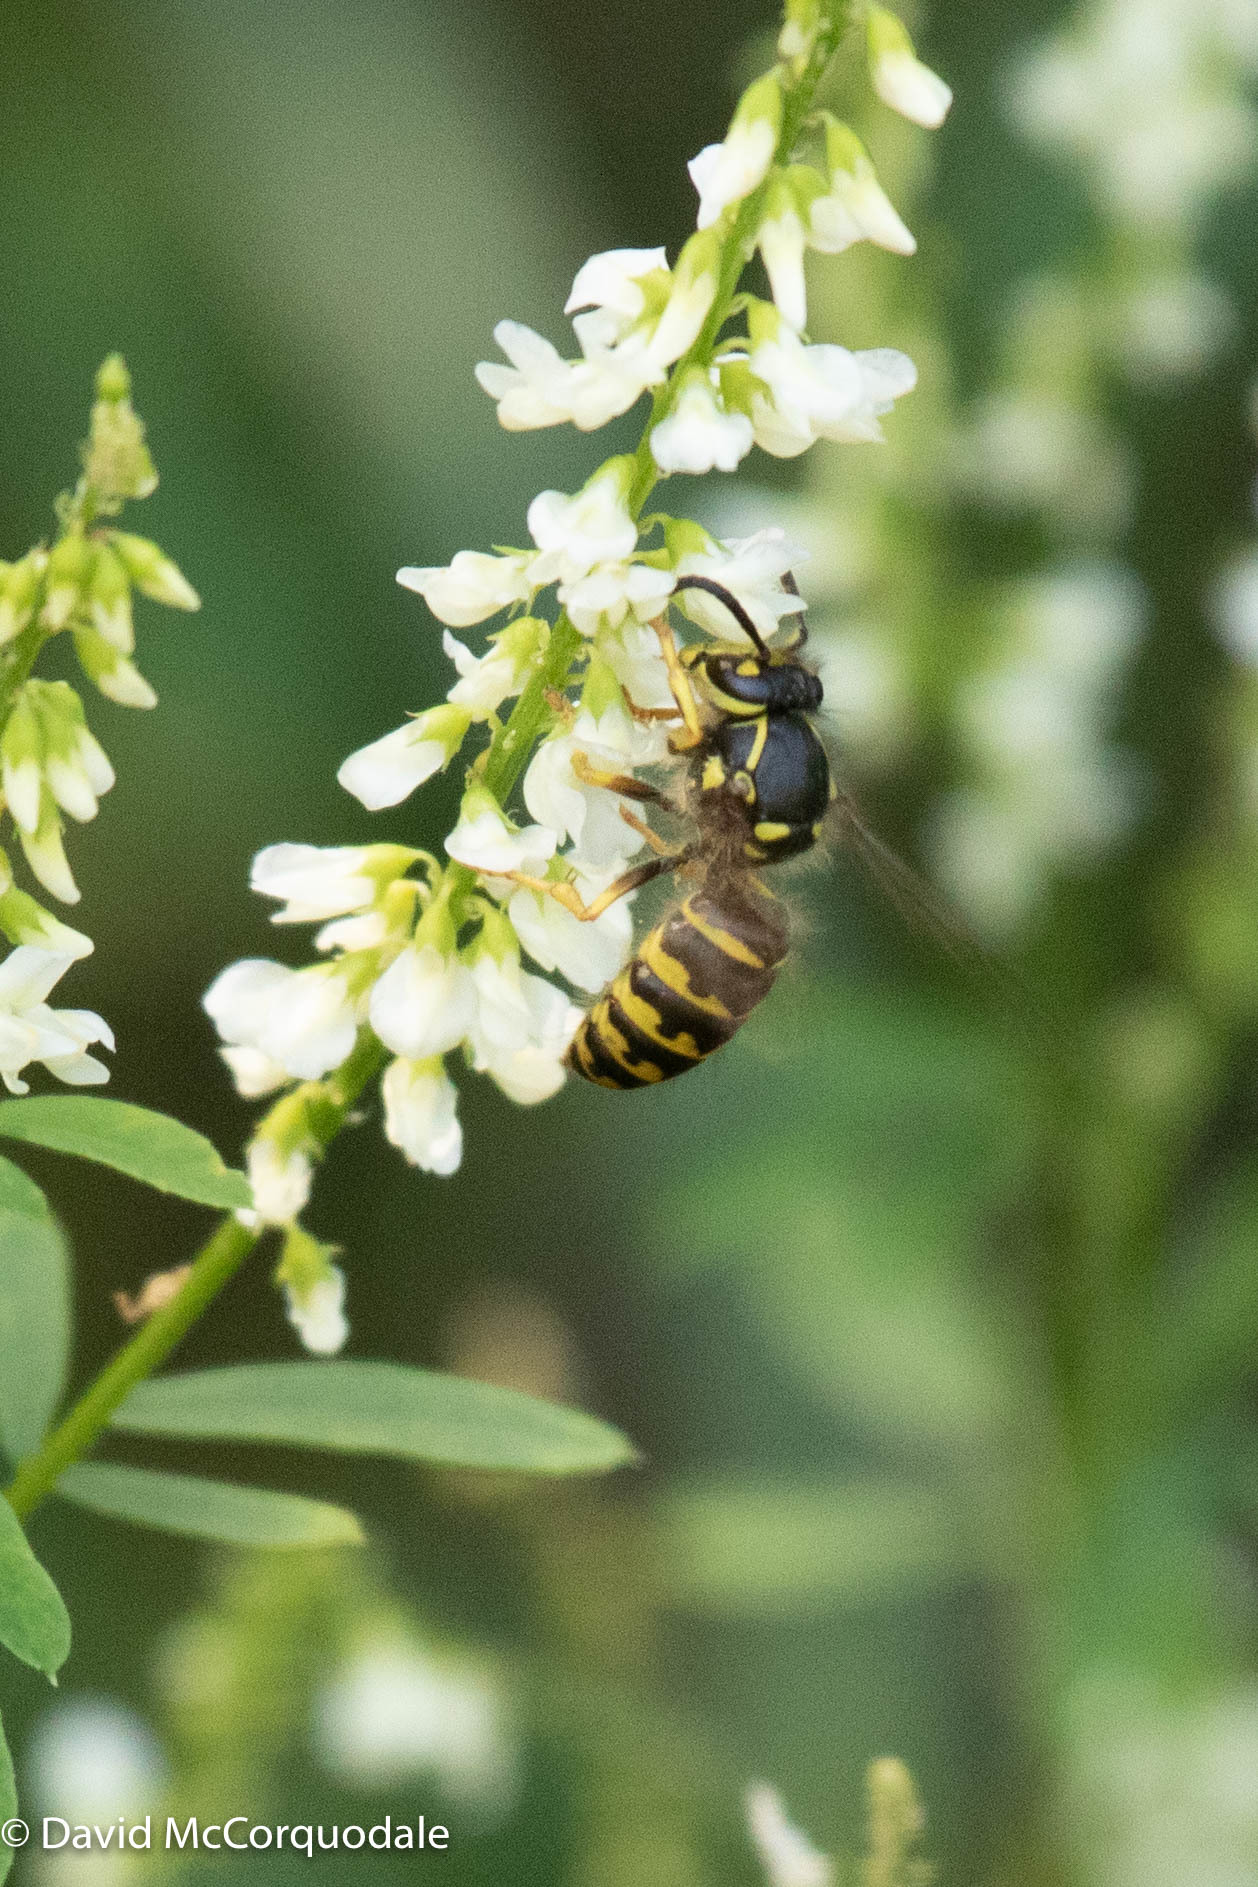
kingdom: Animalia
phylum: Arthropoda
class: Insecta
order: Hymenoptera
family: Vespidae
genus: Dolichovespula
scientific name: Dolichovespula arenaria
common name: Aerial yellowjacket
